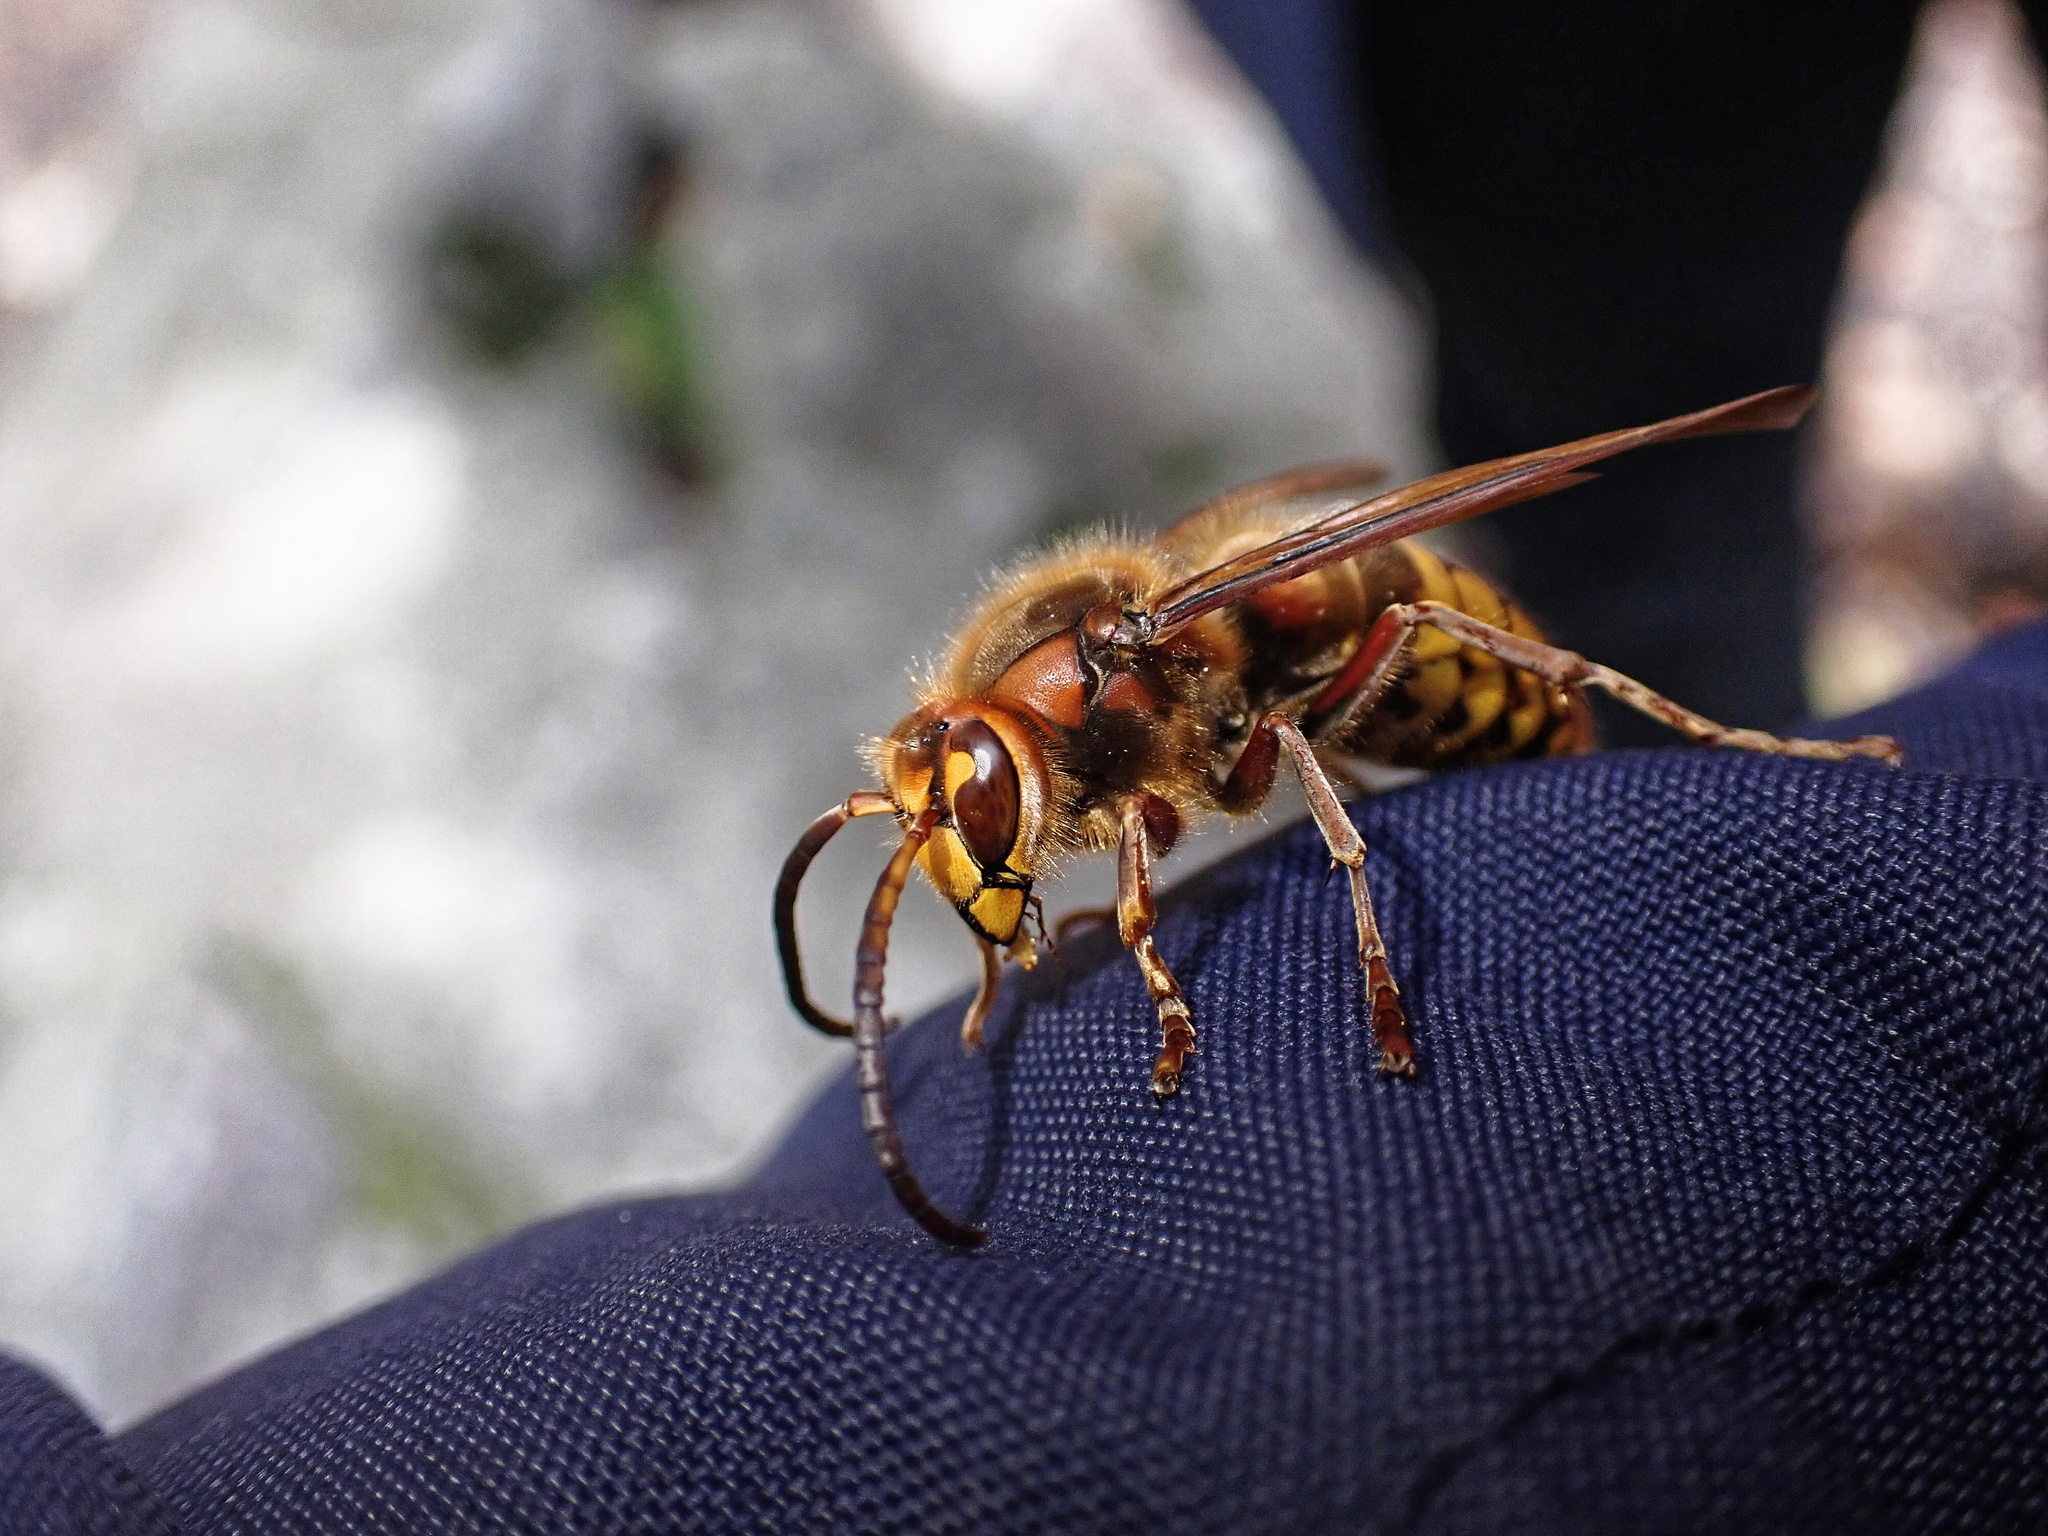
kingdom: Animalia
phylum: Arthropoda
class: Insecta
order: Hymenoptera
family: Vespidae
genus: Vespa
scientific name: Vespa crabro
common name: Hornet
